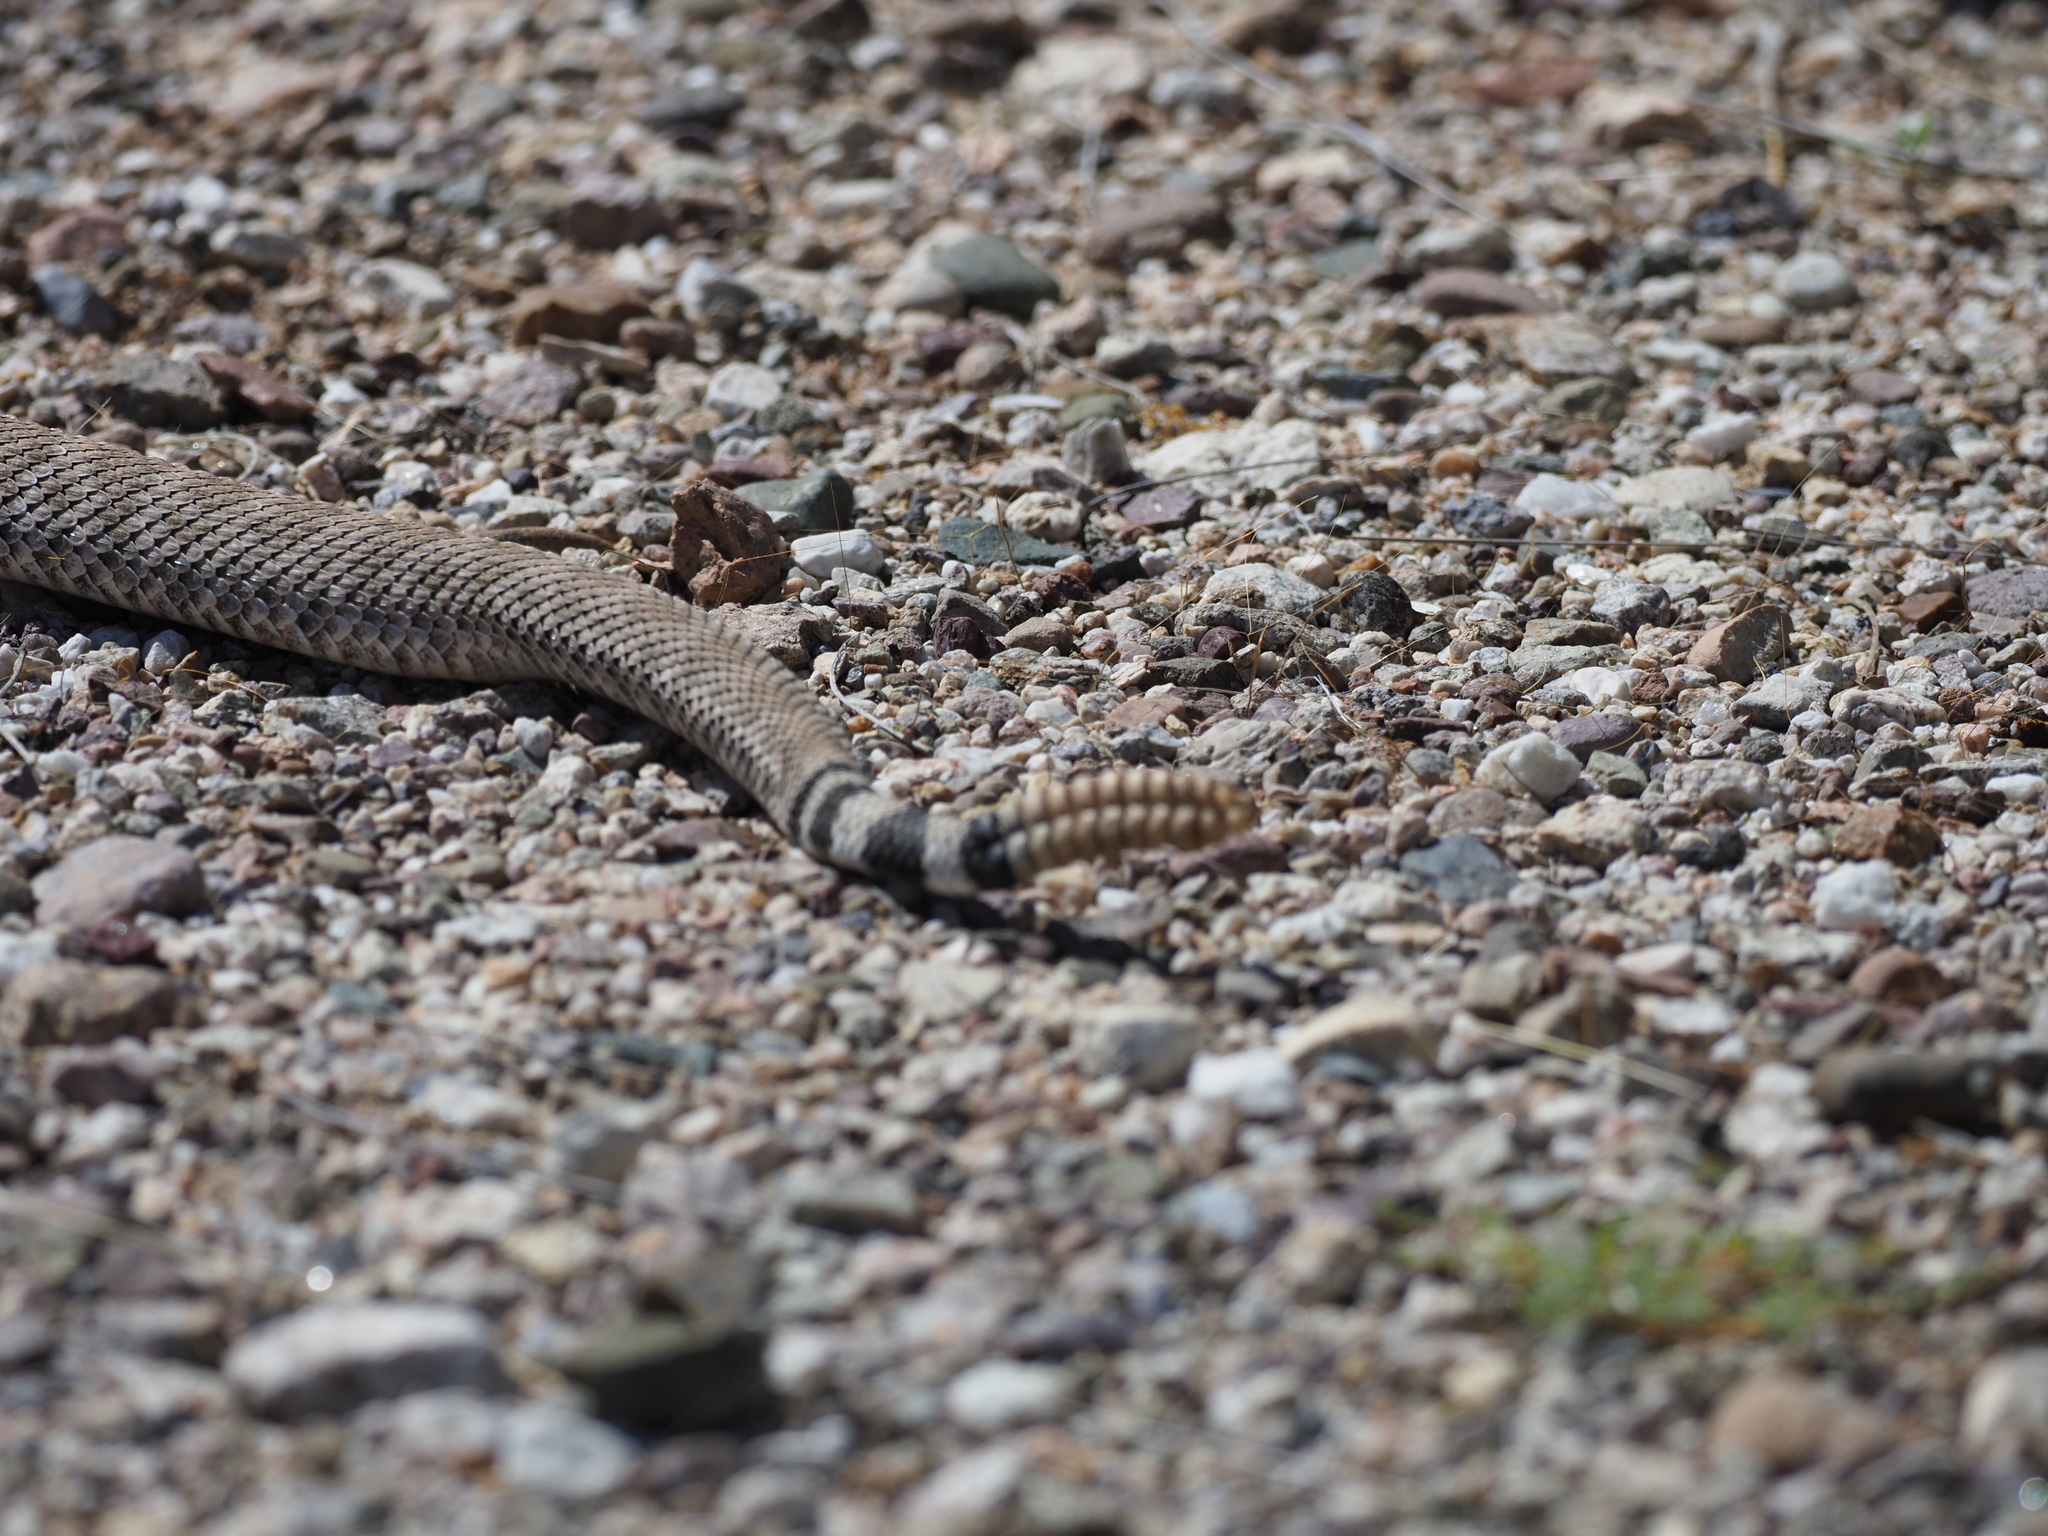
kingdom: Animalia
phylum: Chordata
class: Squamata
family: Viperidae
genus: Crotalus
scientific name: Crotalus atrox
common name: Western diamond-backed rattlesnake
